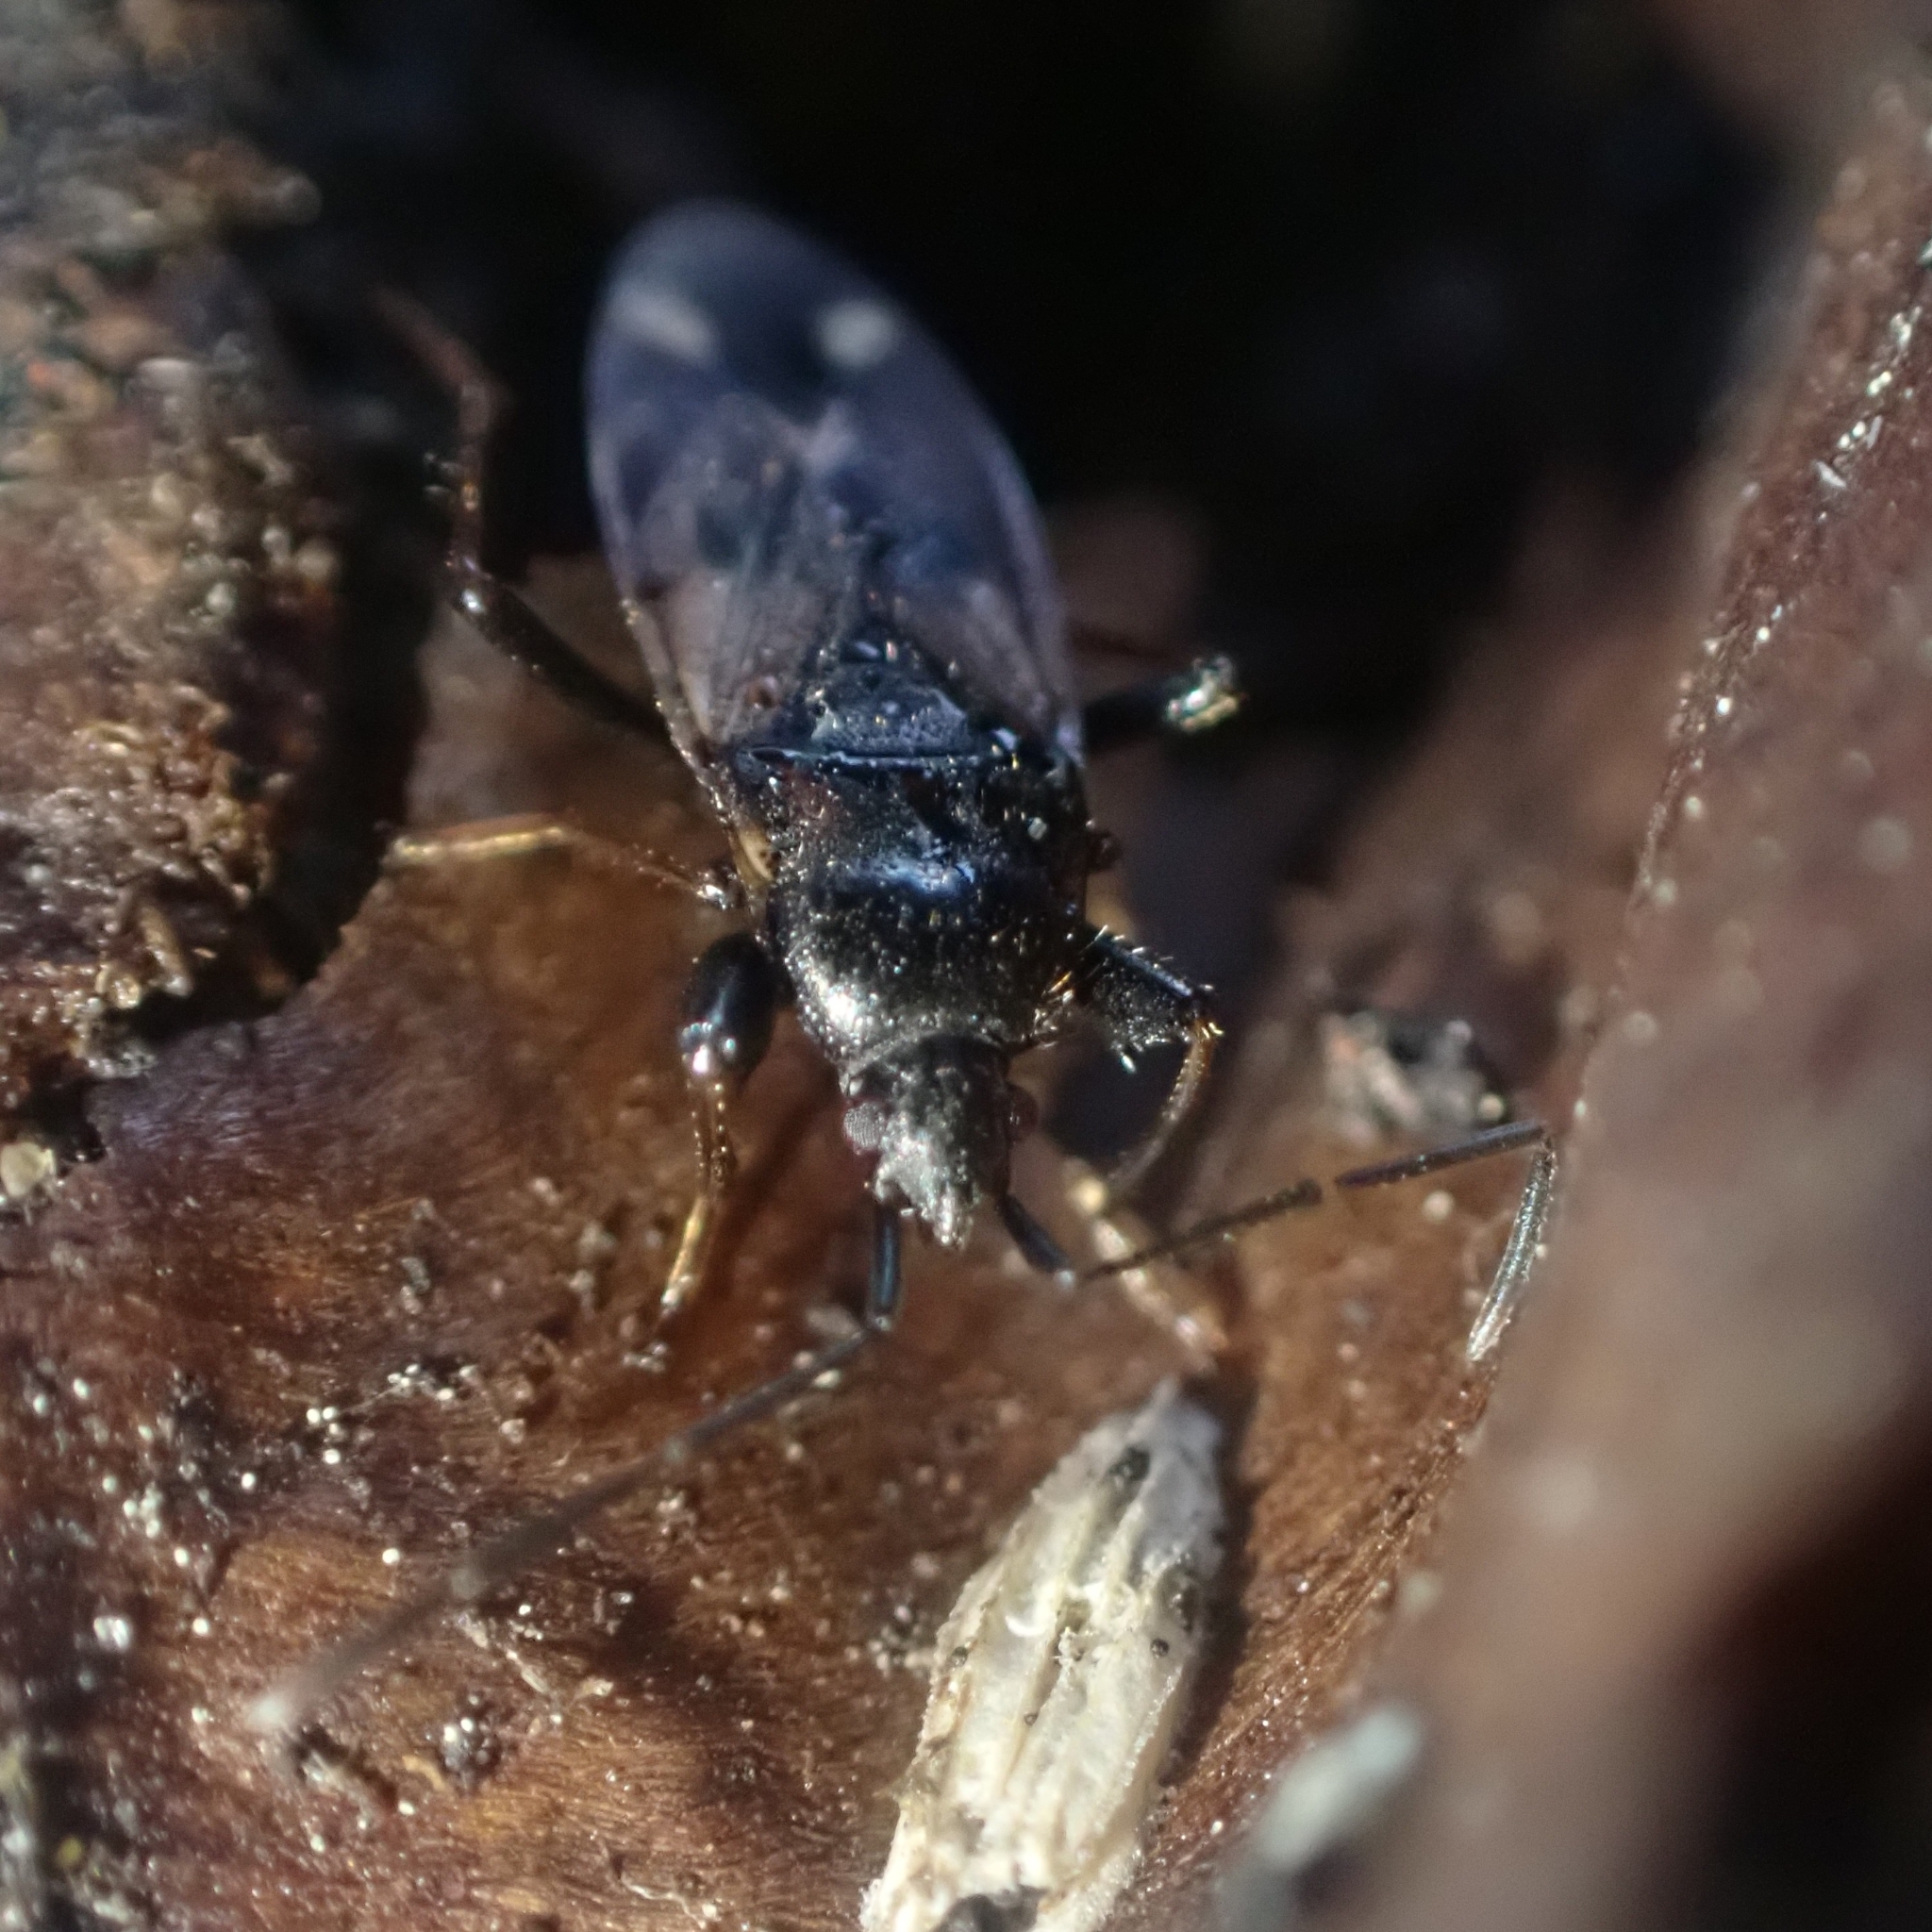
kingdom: Animalia
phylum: Arthropoda
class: Insecta
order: Hemiptera
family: Rhyparochromidae
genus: Eremocoris
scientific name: Eremocoris fenestratus
